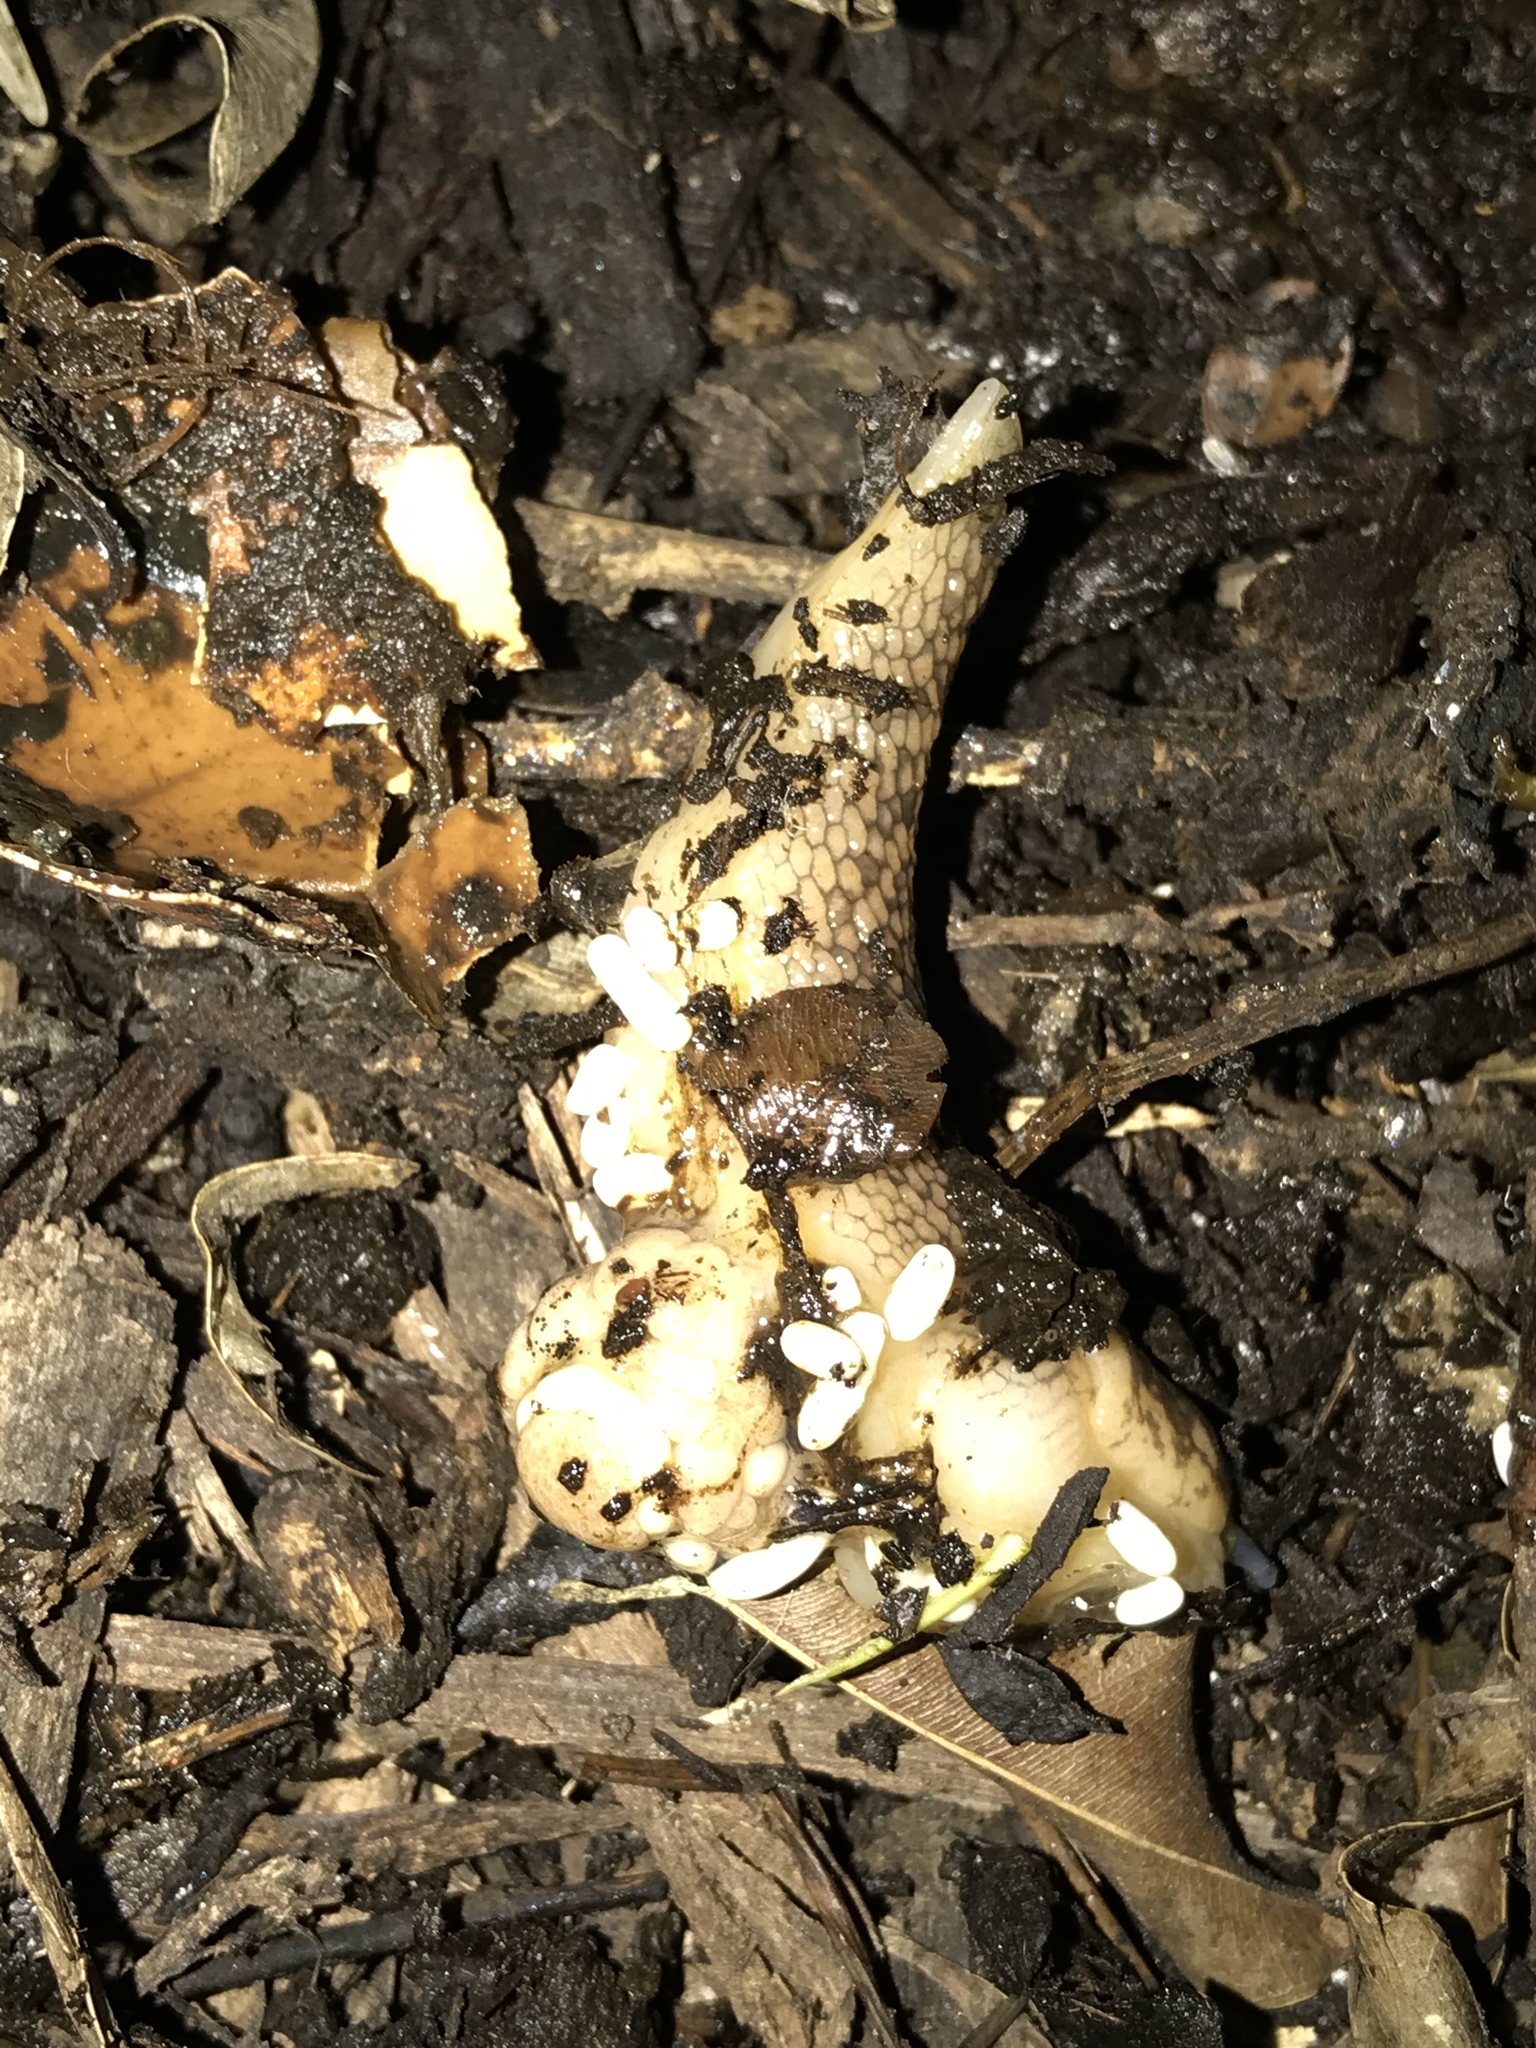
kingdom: Animalia
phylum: Mollusca
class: Gastropoda
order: Stylommatophora
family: Limacidae
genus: Limacus
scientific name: Limacus flavus
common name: Yellow gardenslug
